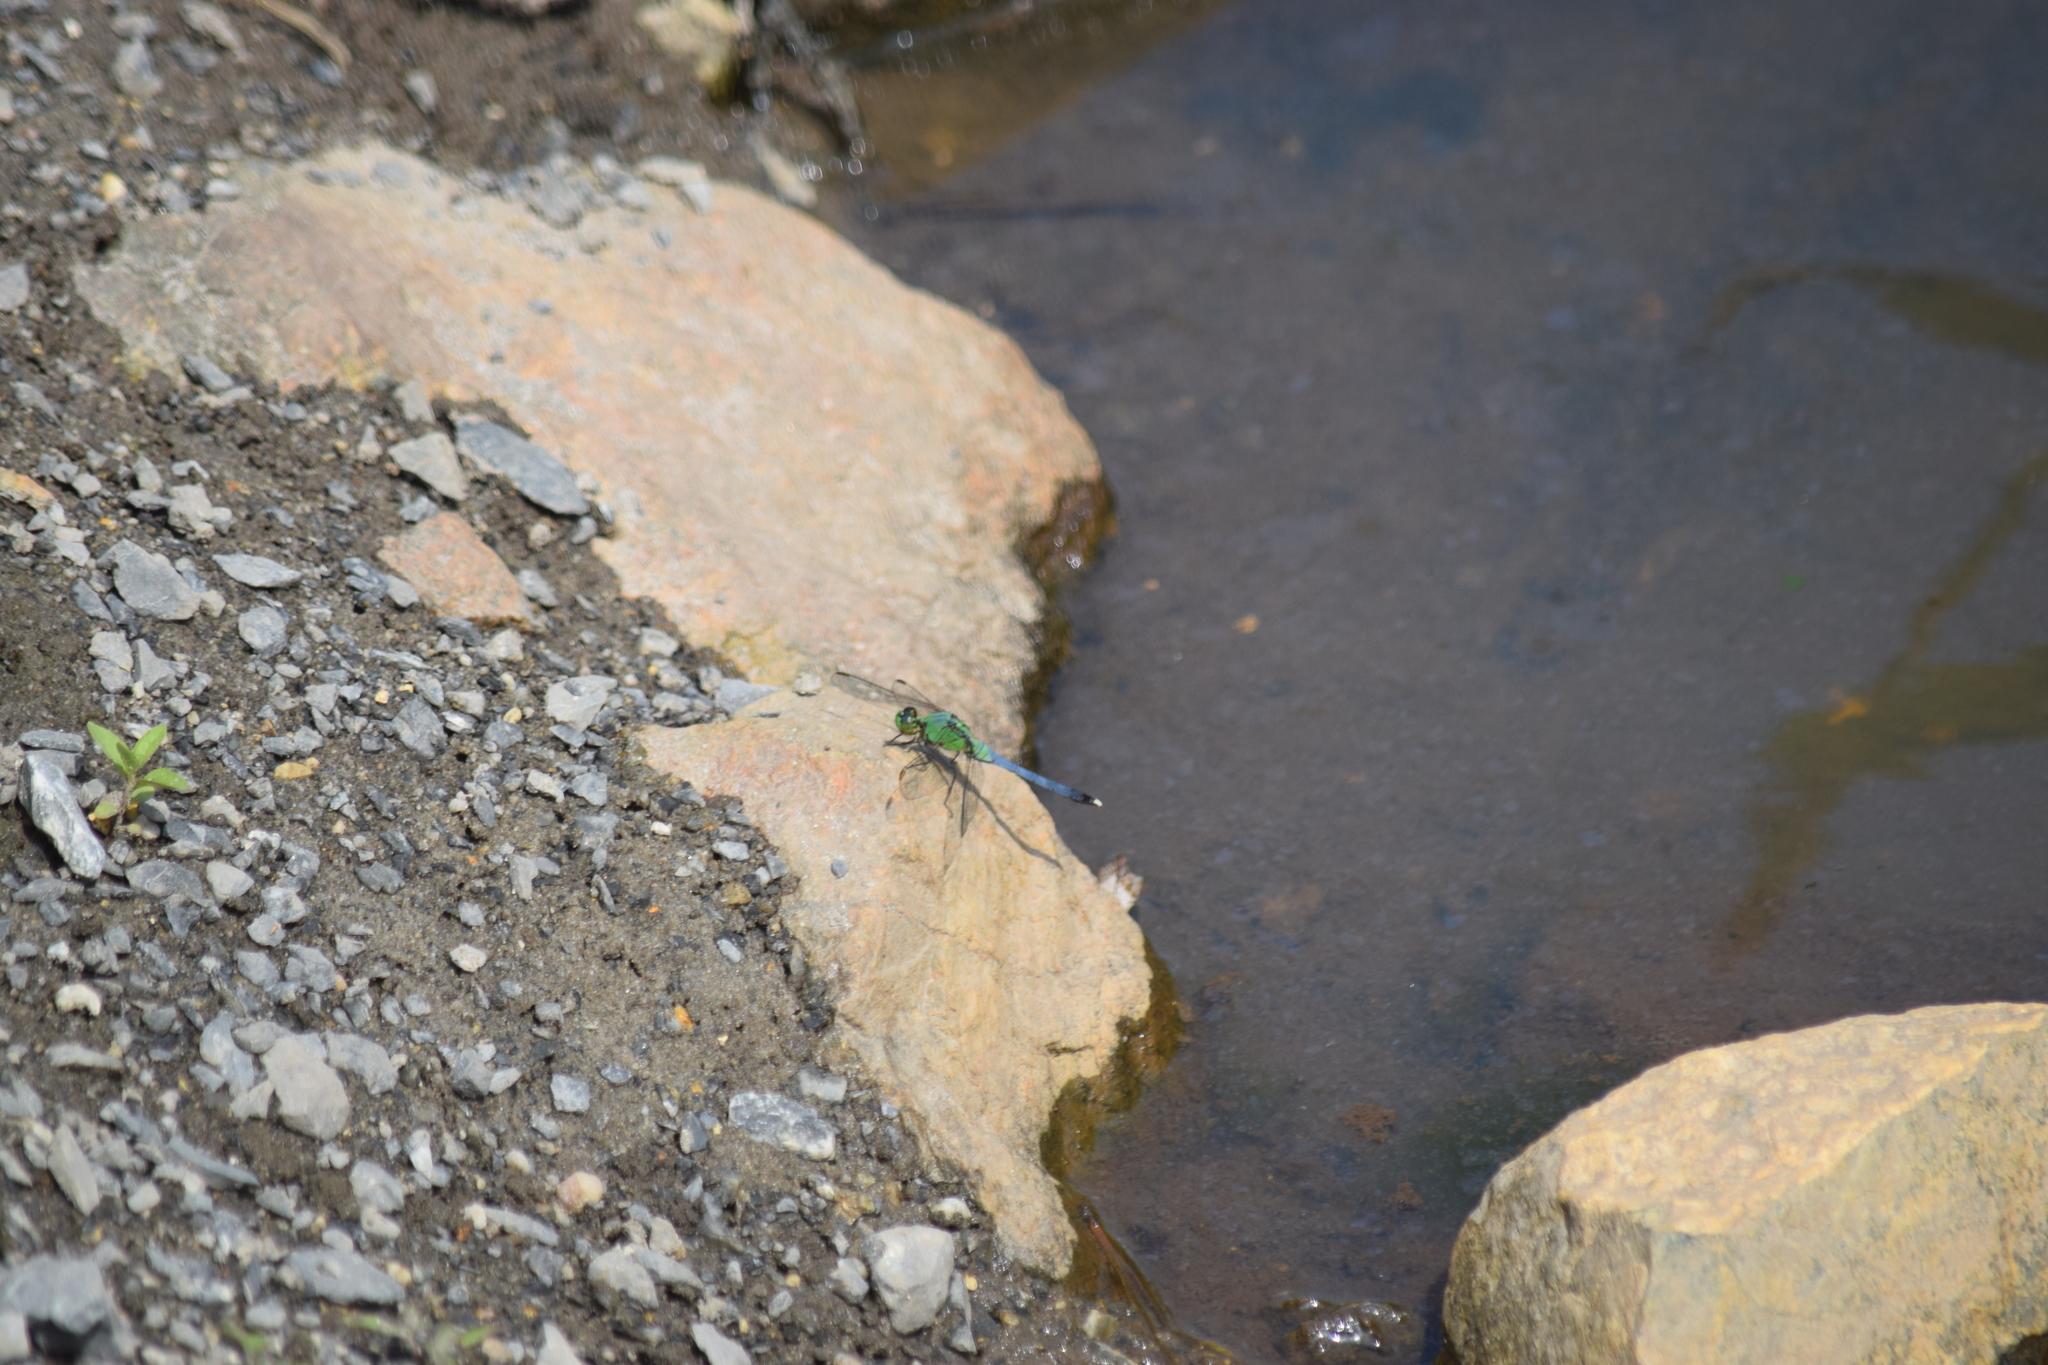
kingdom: Animalia
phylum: Arthropoda
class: Insecta
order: Odonata
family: Libellulidae
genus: Erythemis
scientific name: Erythemis simplicicollis
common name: Eastern pondhawk
